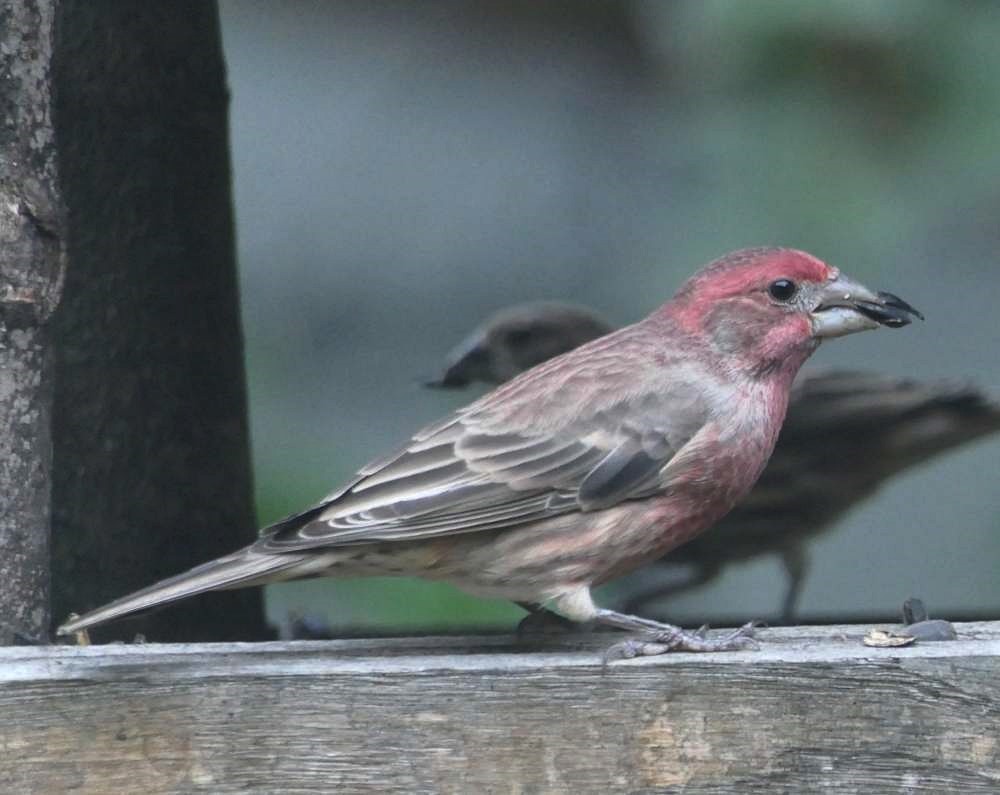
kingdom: Animalia
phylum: Chordata
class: Aves
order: Passeriformes
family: Fringillidae
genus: Haemorhous
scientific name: Haemorhous mexicanus
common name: House finch
